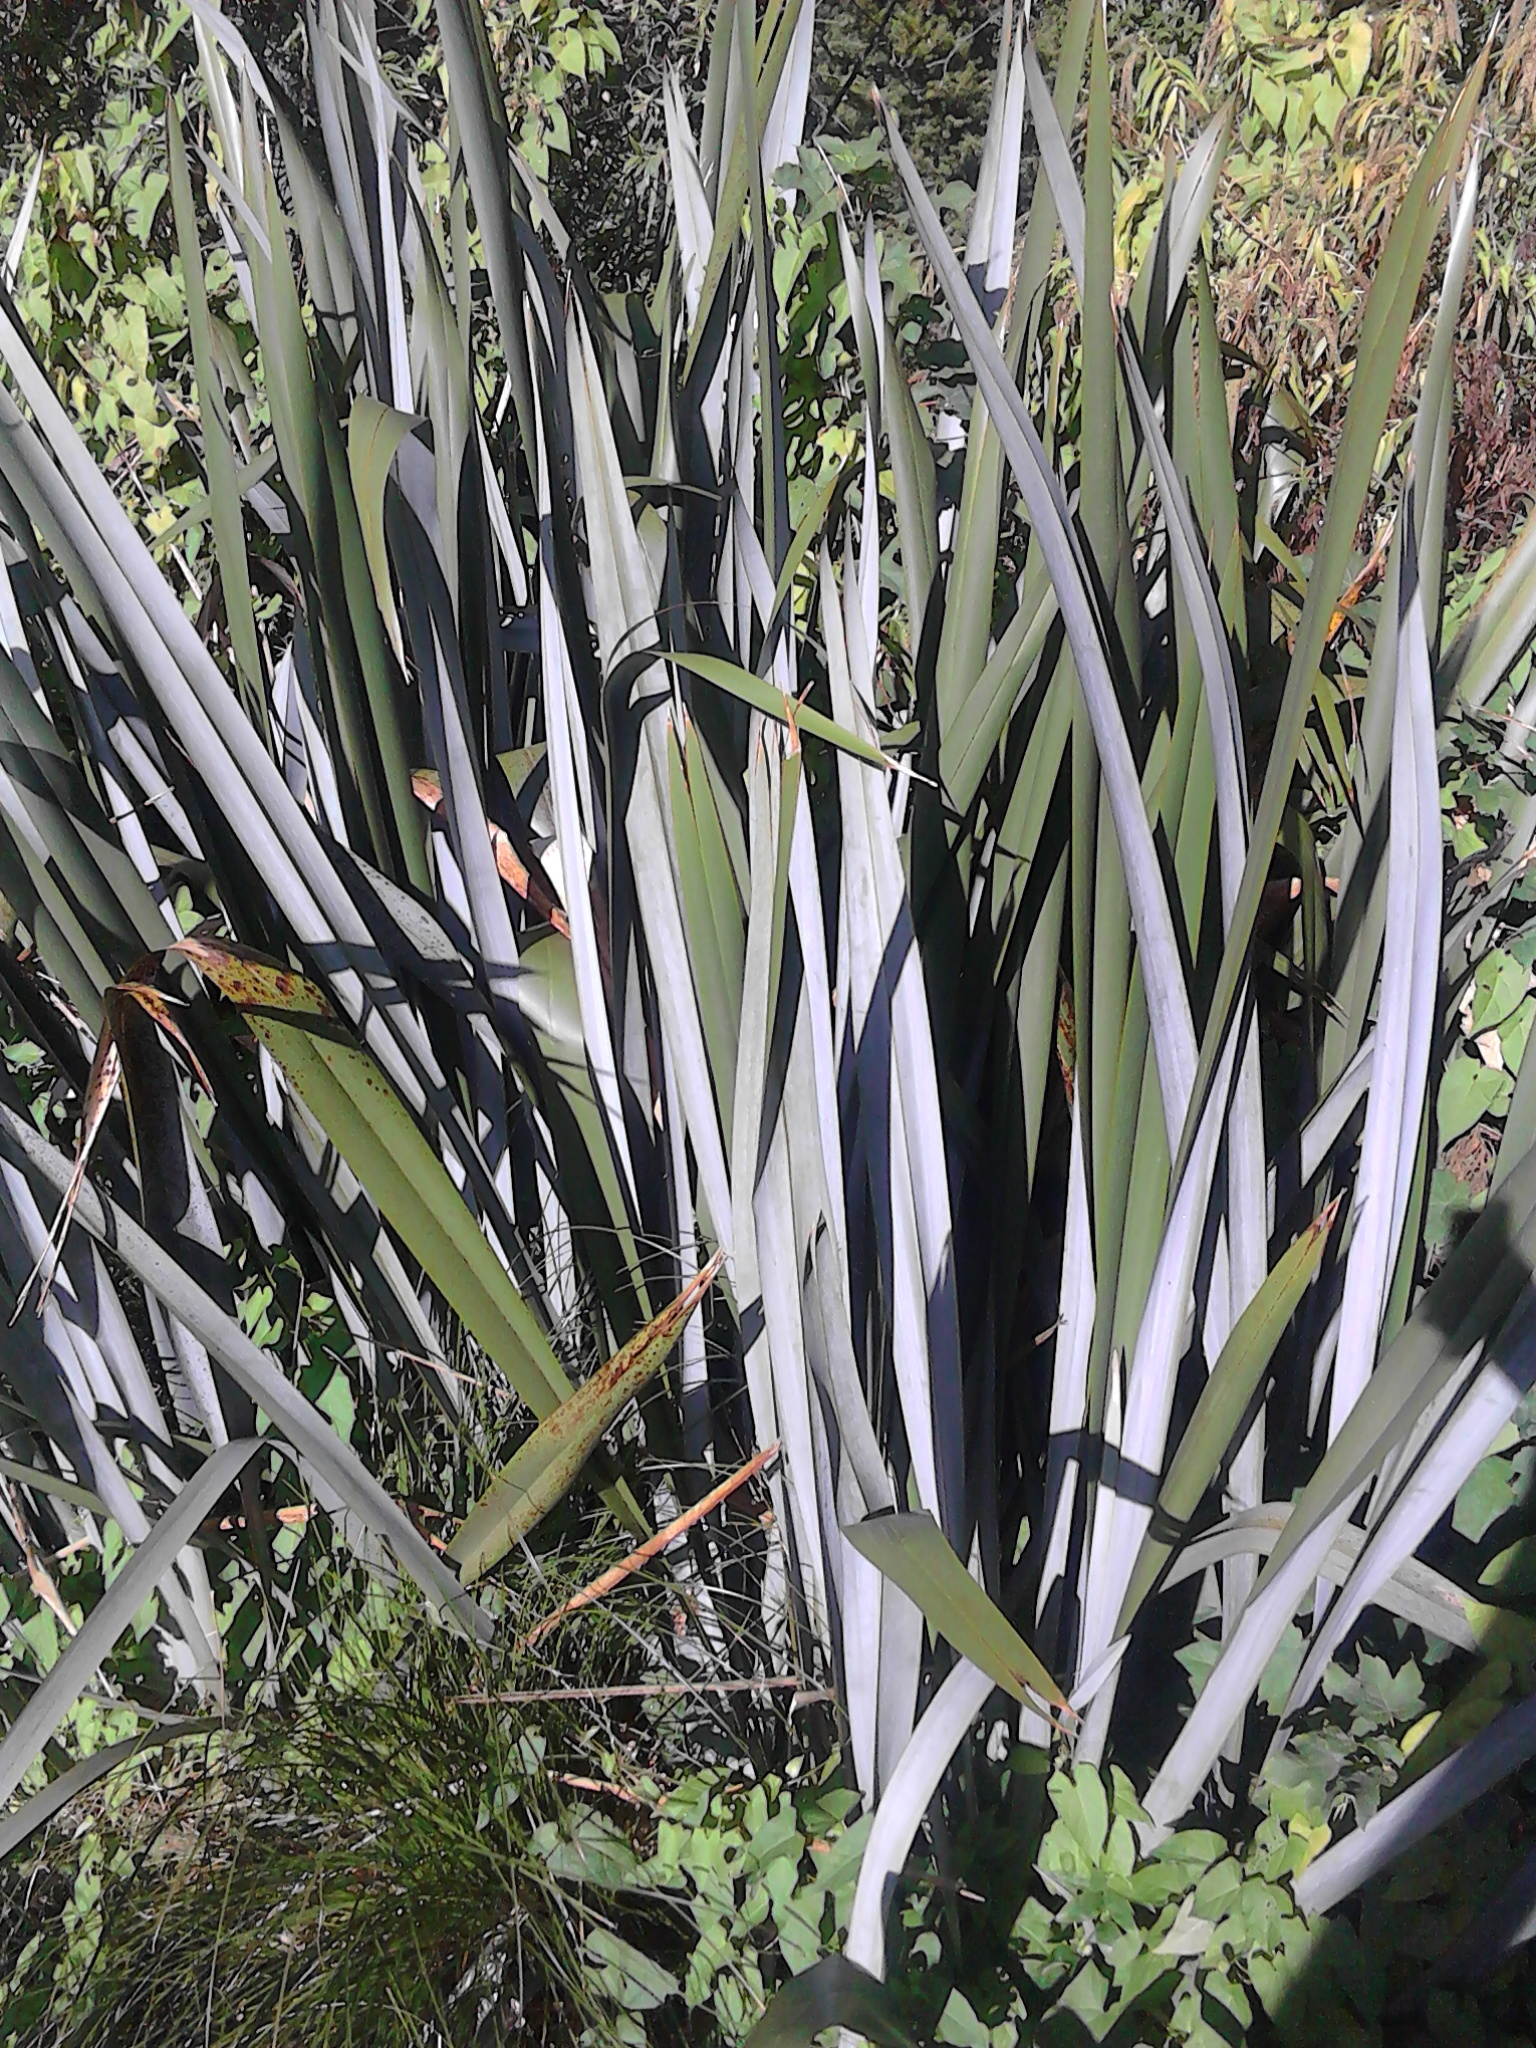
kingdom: Plantae
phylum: Tracheophyta
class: Liliopsida
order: Asparagales
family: Asphodelaceae
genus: Phormium
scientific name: Phormium tenax
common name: New zealand flax
